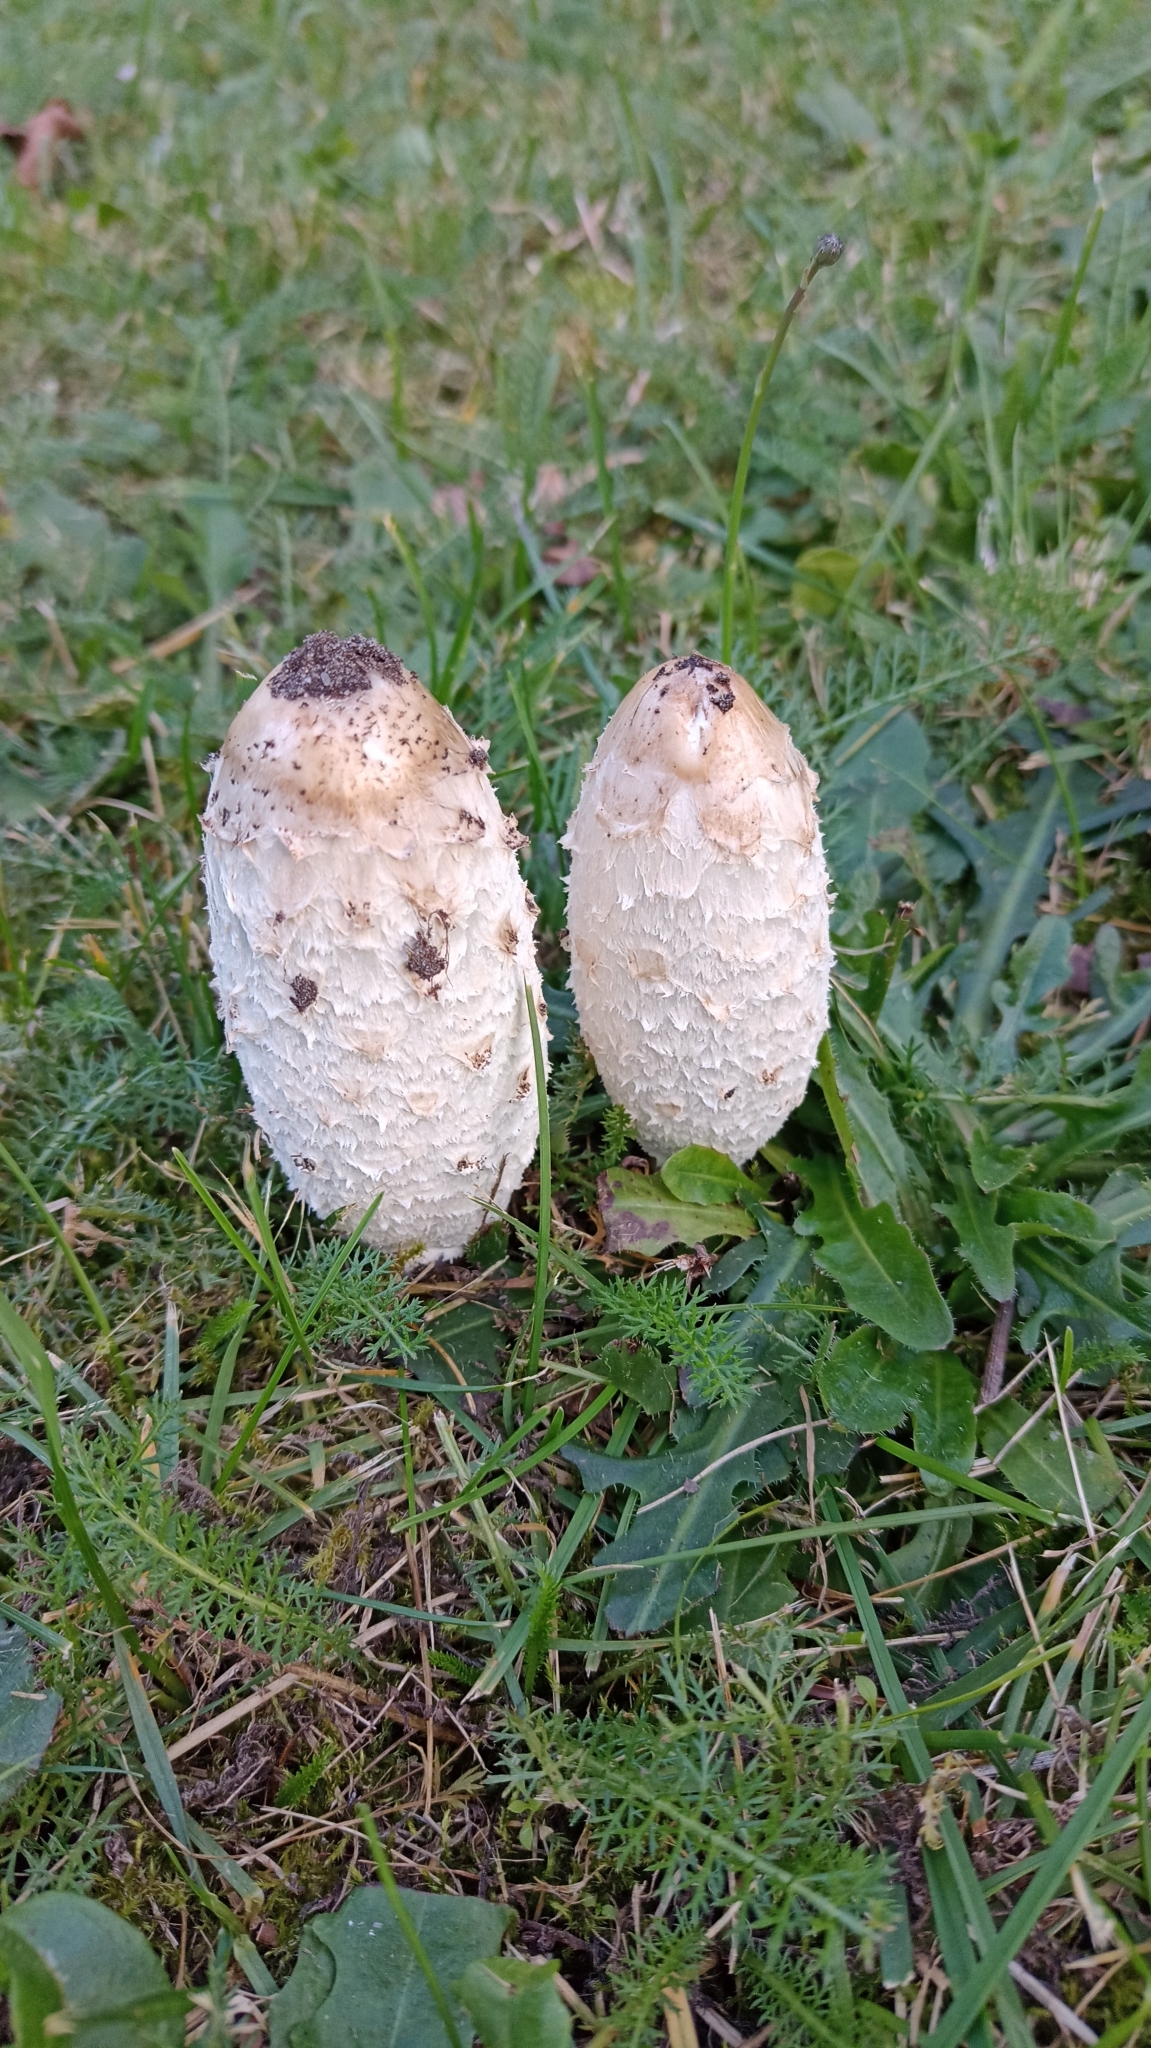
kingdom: Fungi
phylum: Basidiomycota
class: Agaricomycetes
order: Agaricales
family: Agaricaceae
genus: Coprinus
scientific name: Coprinus comatus
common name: Lawyer's wig
